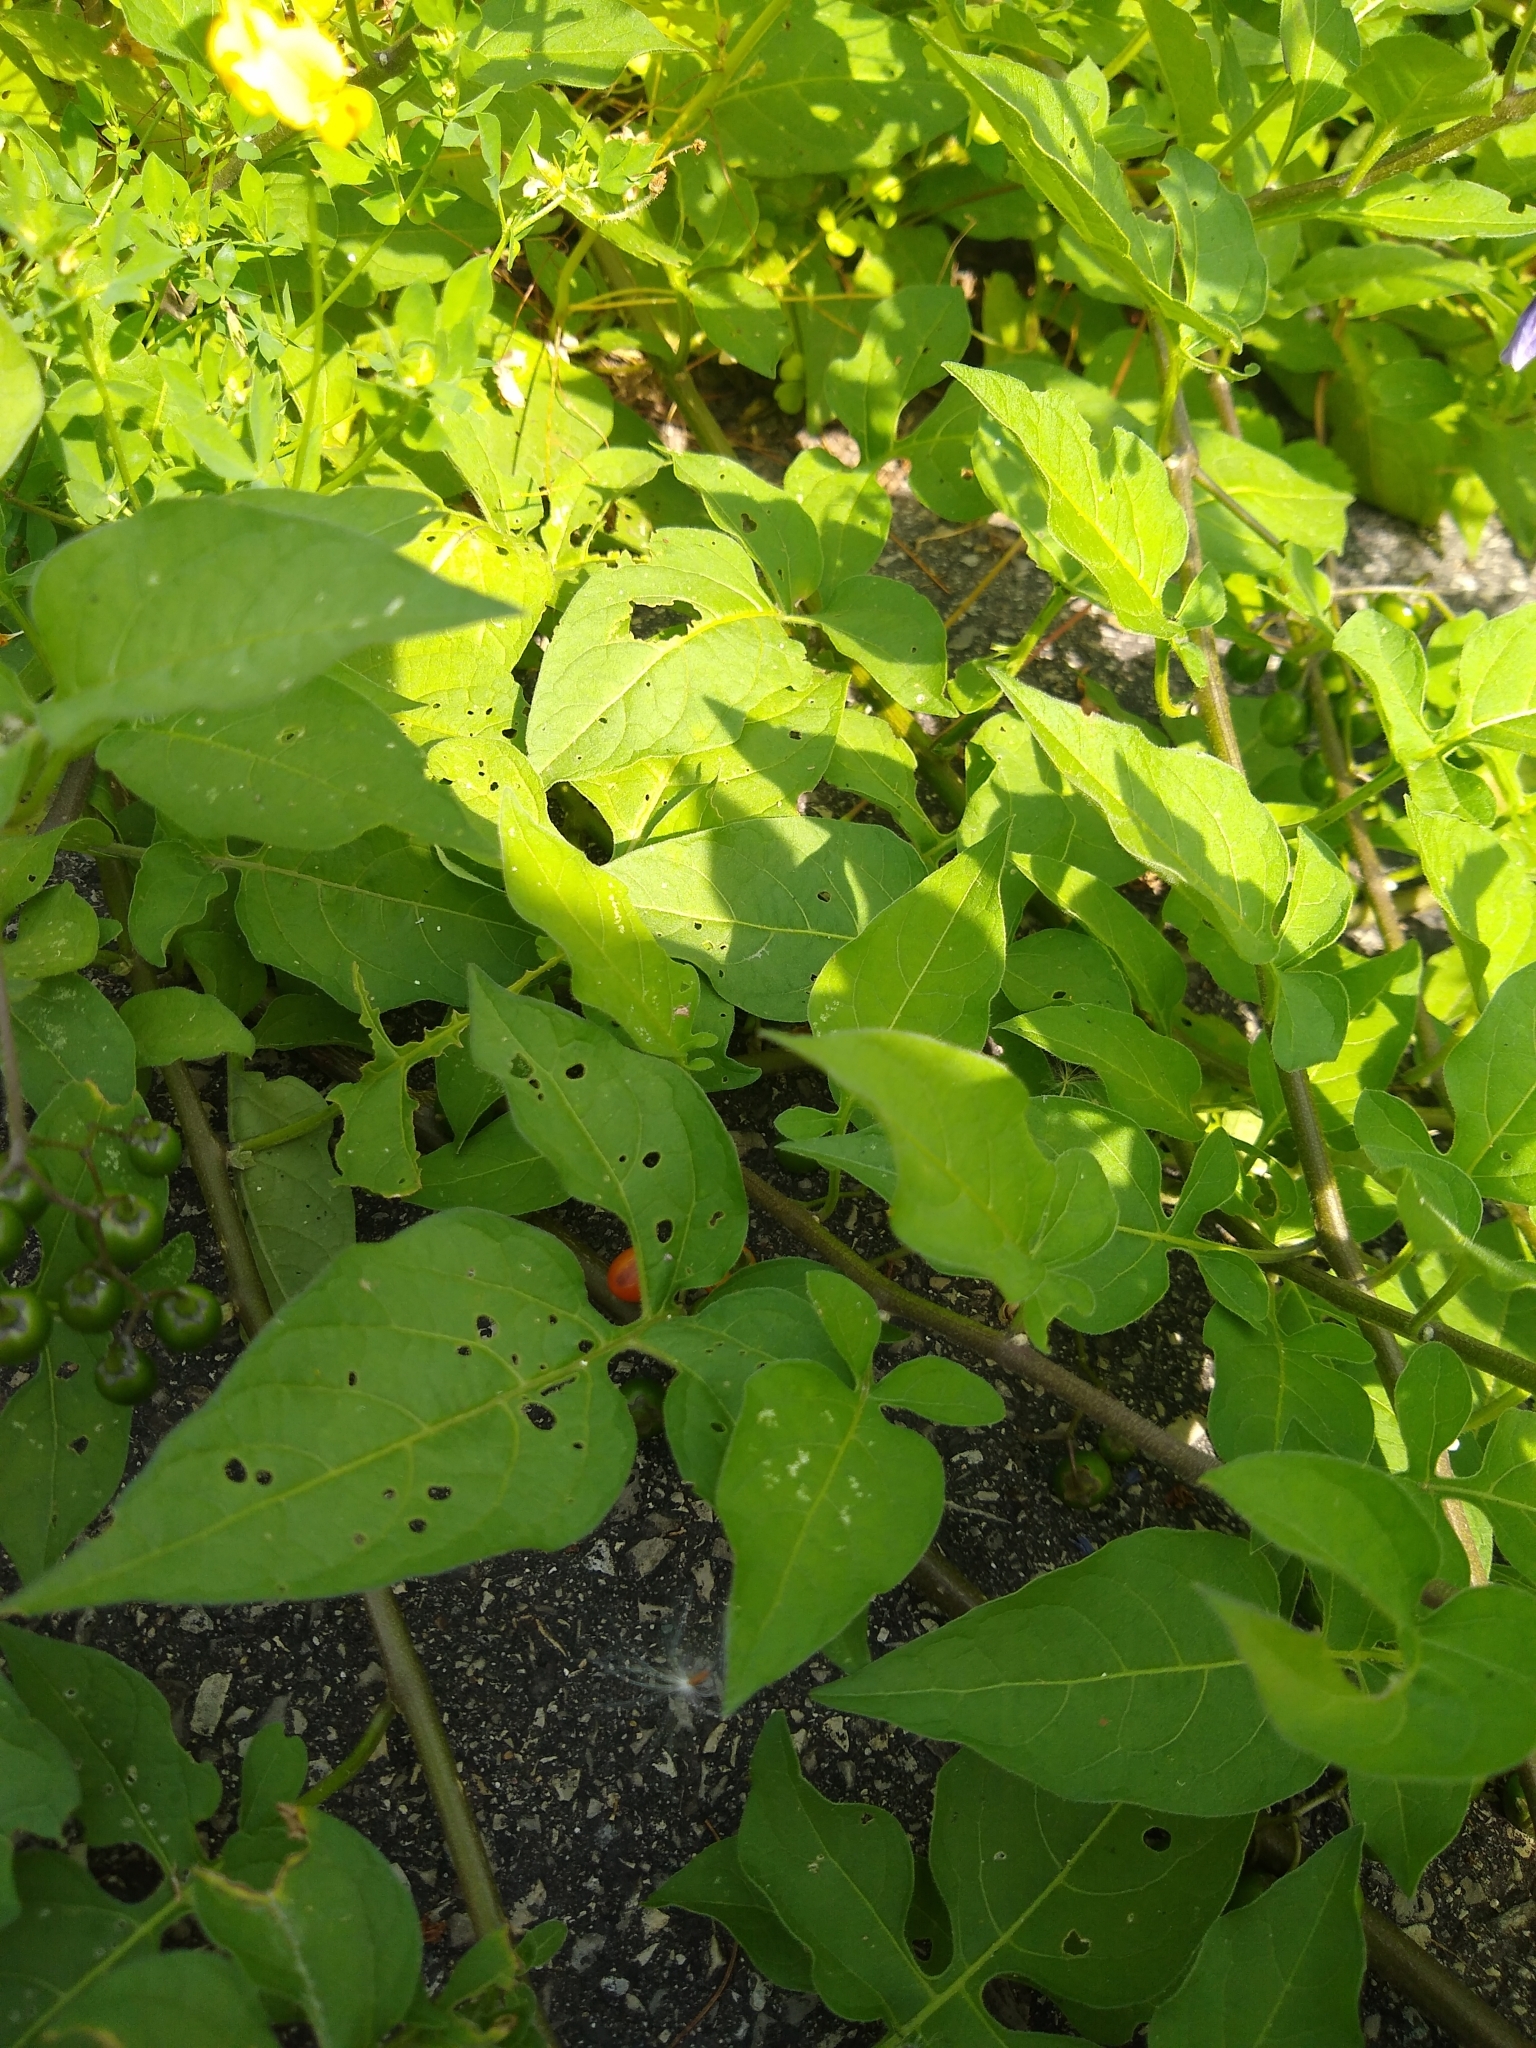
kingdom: Plantae
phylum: Tracheophyta
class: Magnoliopsida
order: Solanales
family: Solanaceae
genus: Solanum
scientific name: Solanum dulcamara
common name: Climbing nightshade
